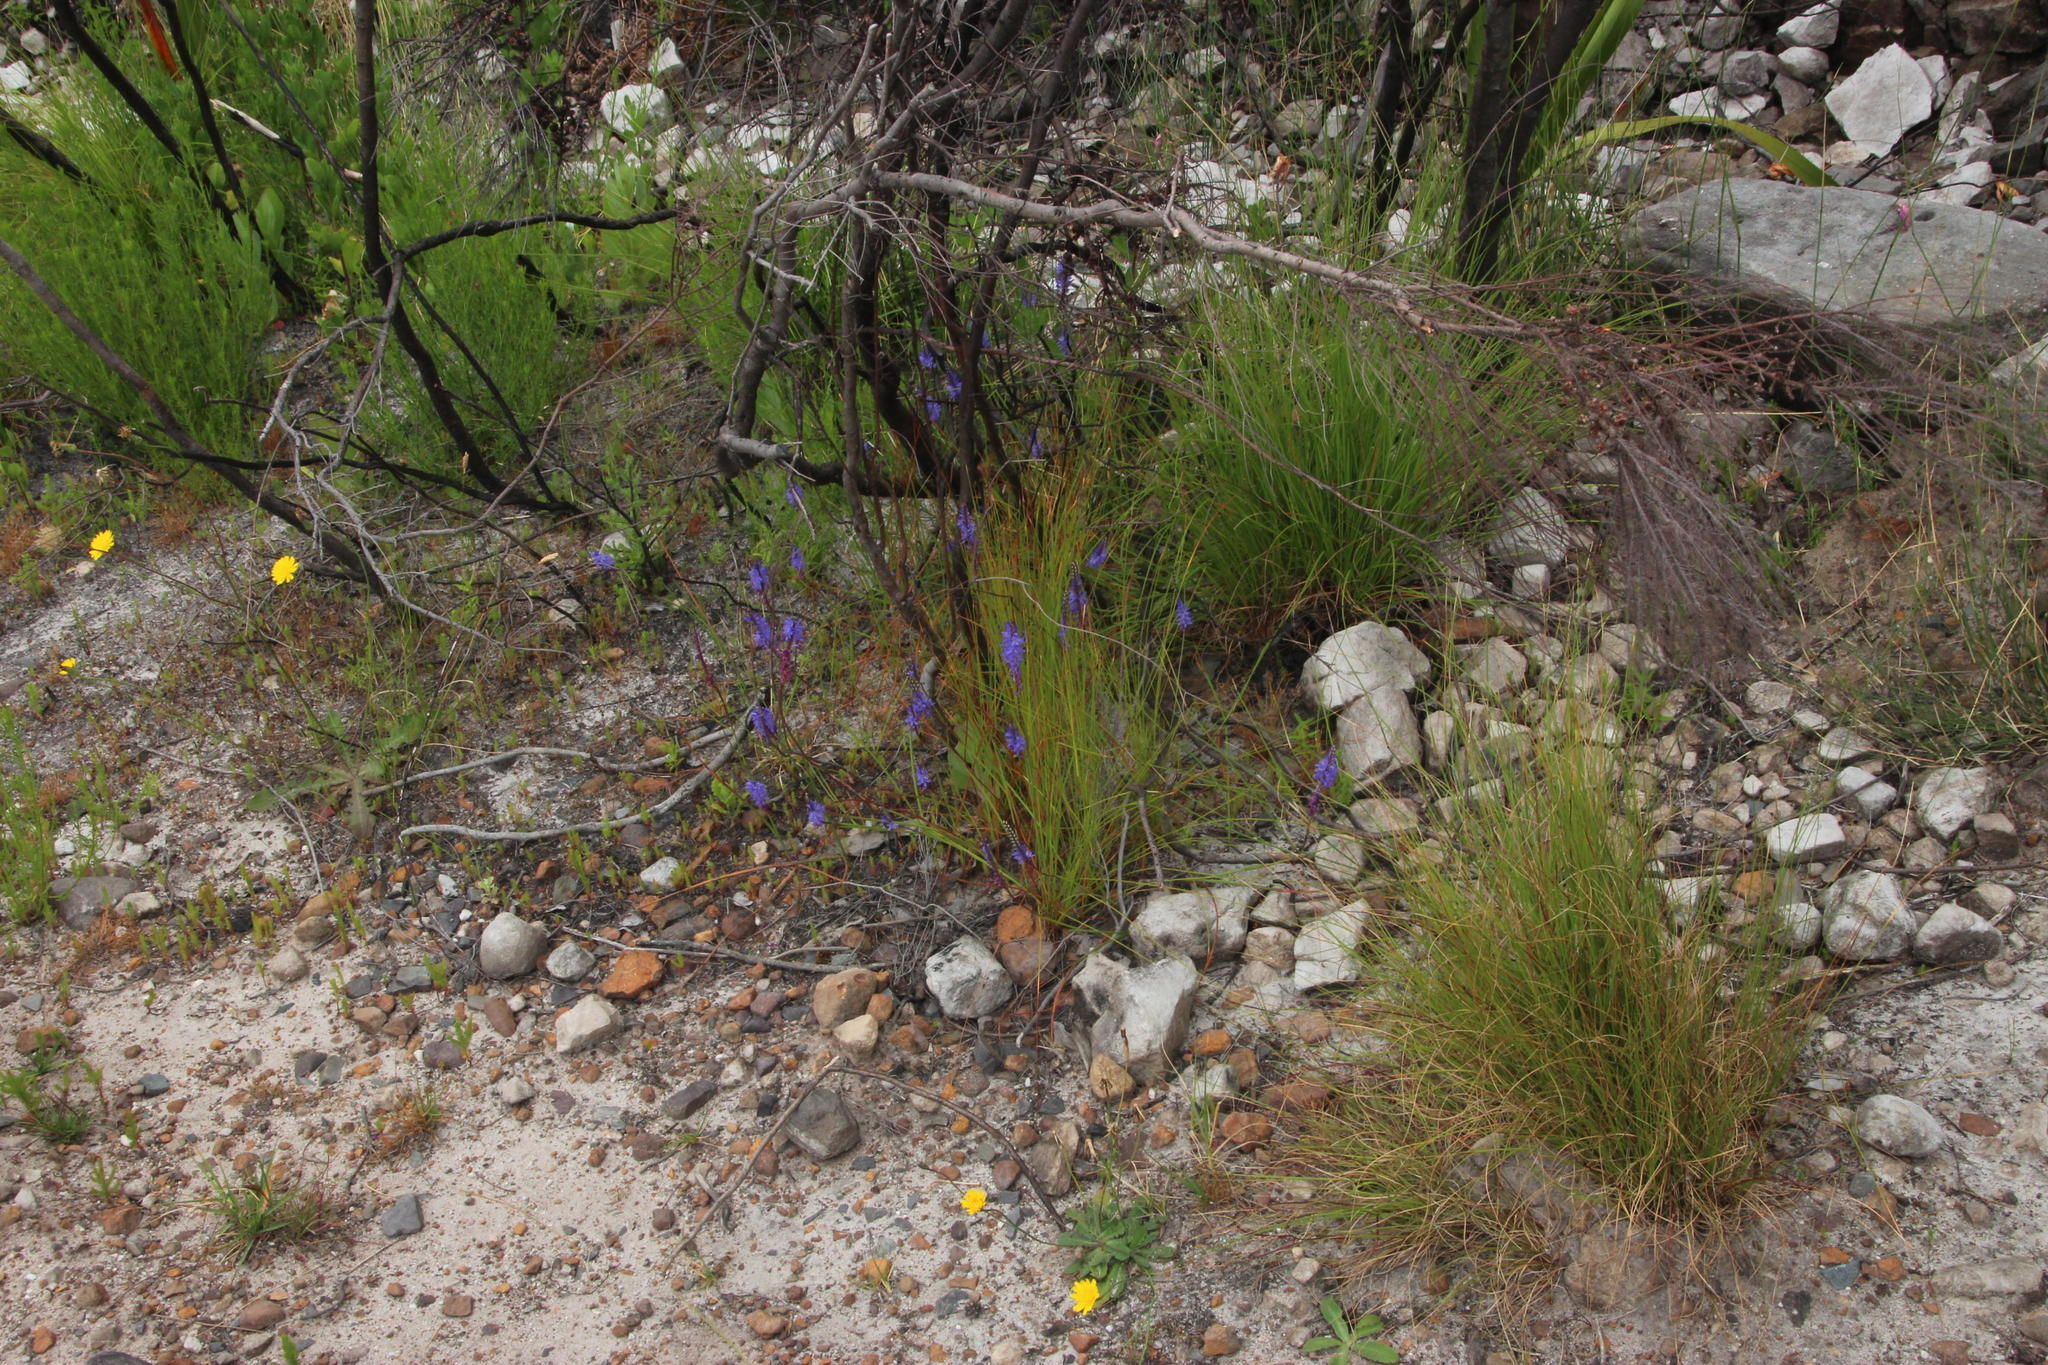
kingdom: Plantae
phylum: Tracheophyta
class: Liliopsida
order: Asparagales
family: Iridaceae
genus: Micranthus
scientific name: Micranthus alopecuroides
